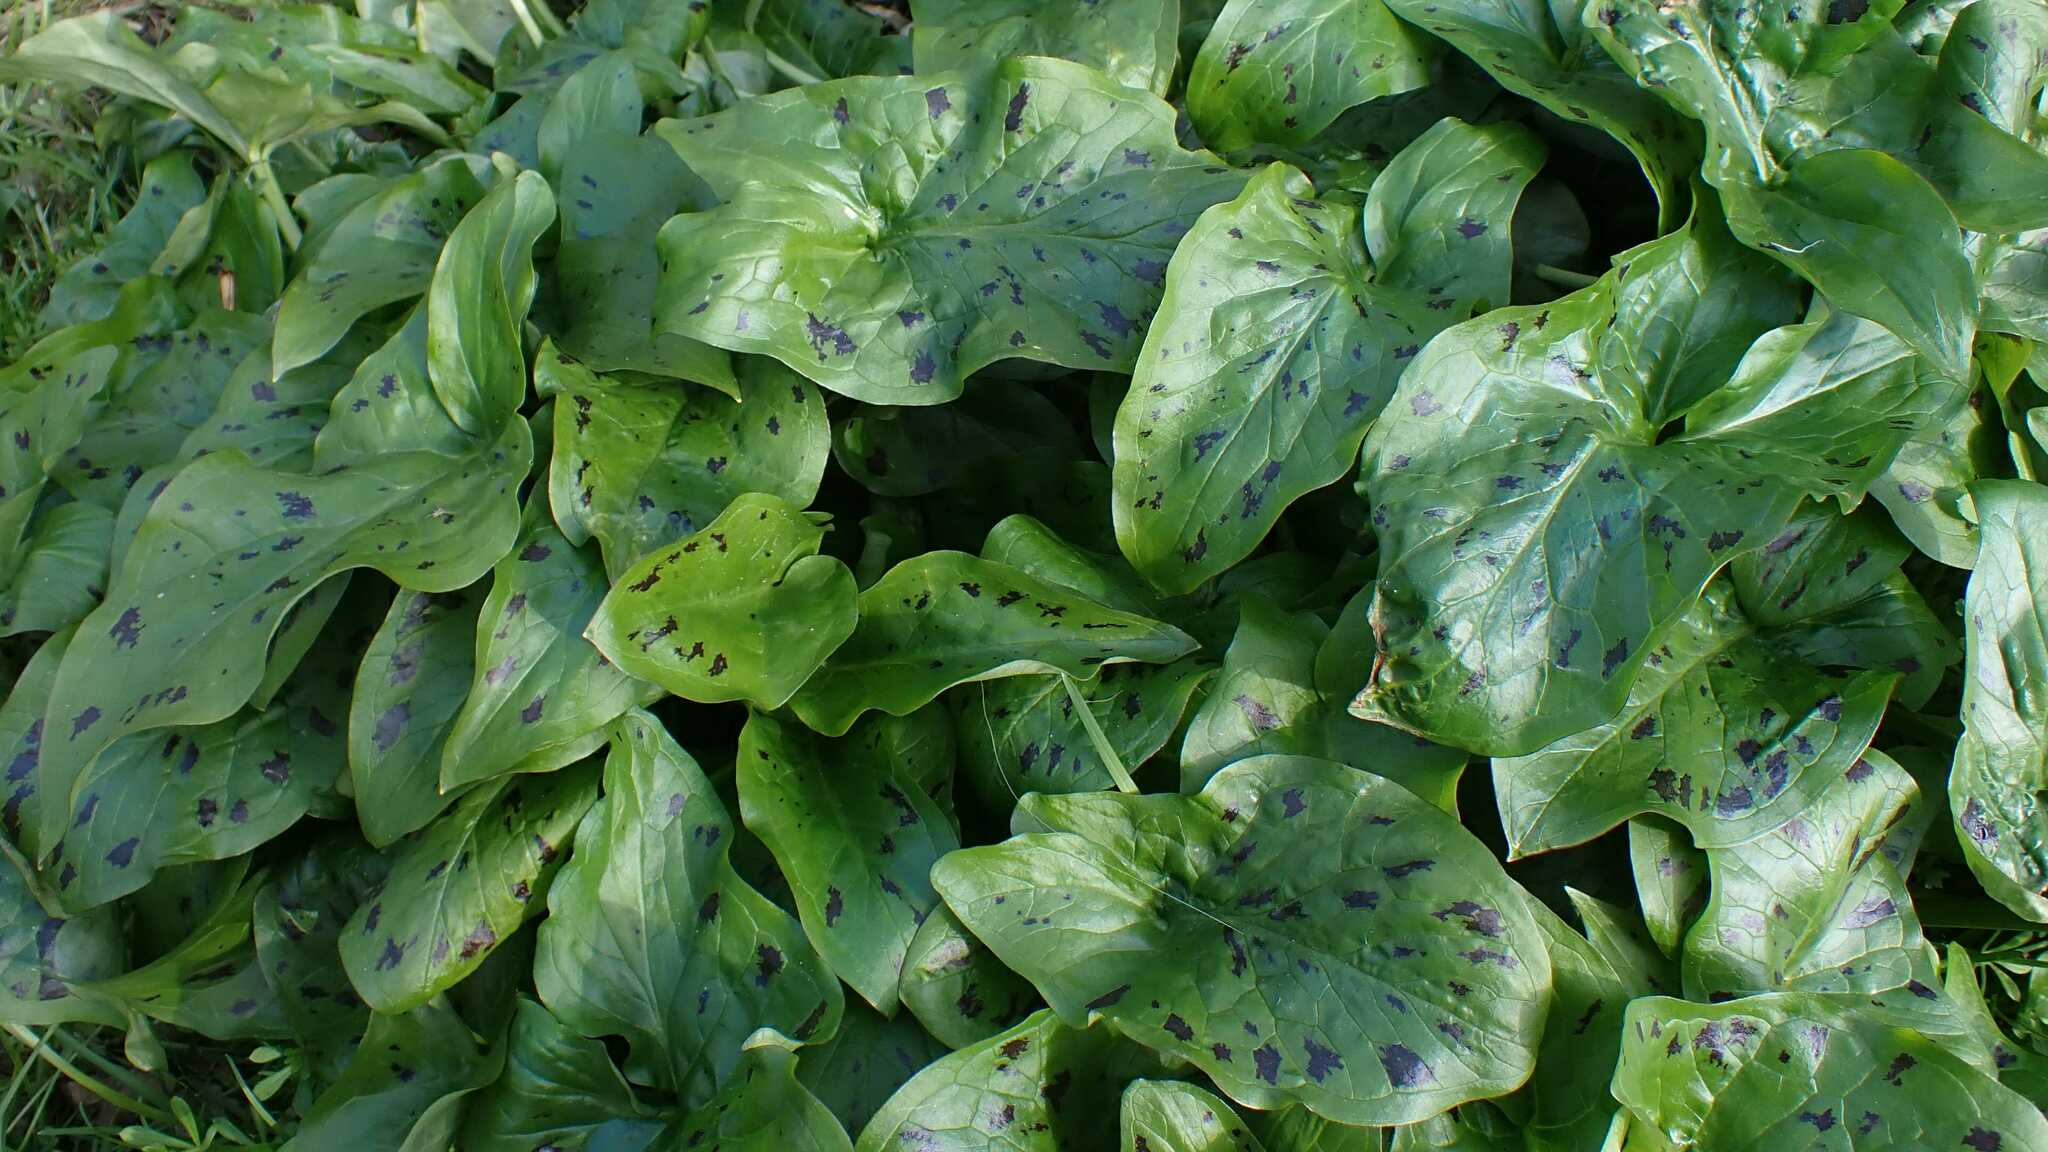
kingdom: Plantae
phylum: Tracheophyta
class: Liliopsida
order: Alismatales
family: Araceae
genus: Arum
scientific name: Arum maculatum
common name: Lords-and-ladies
